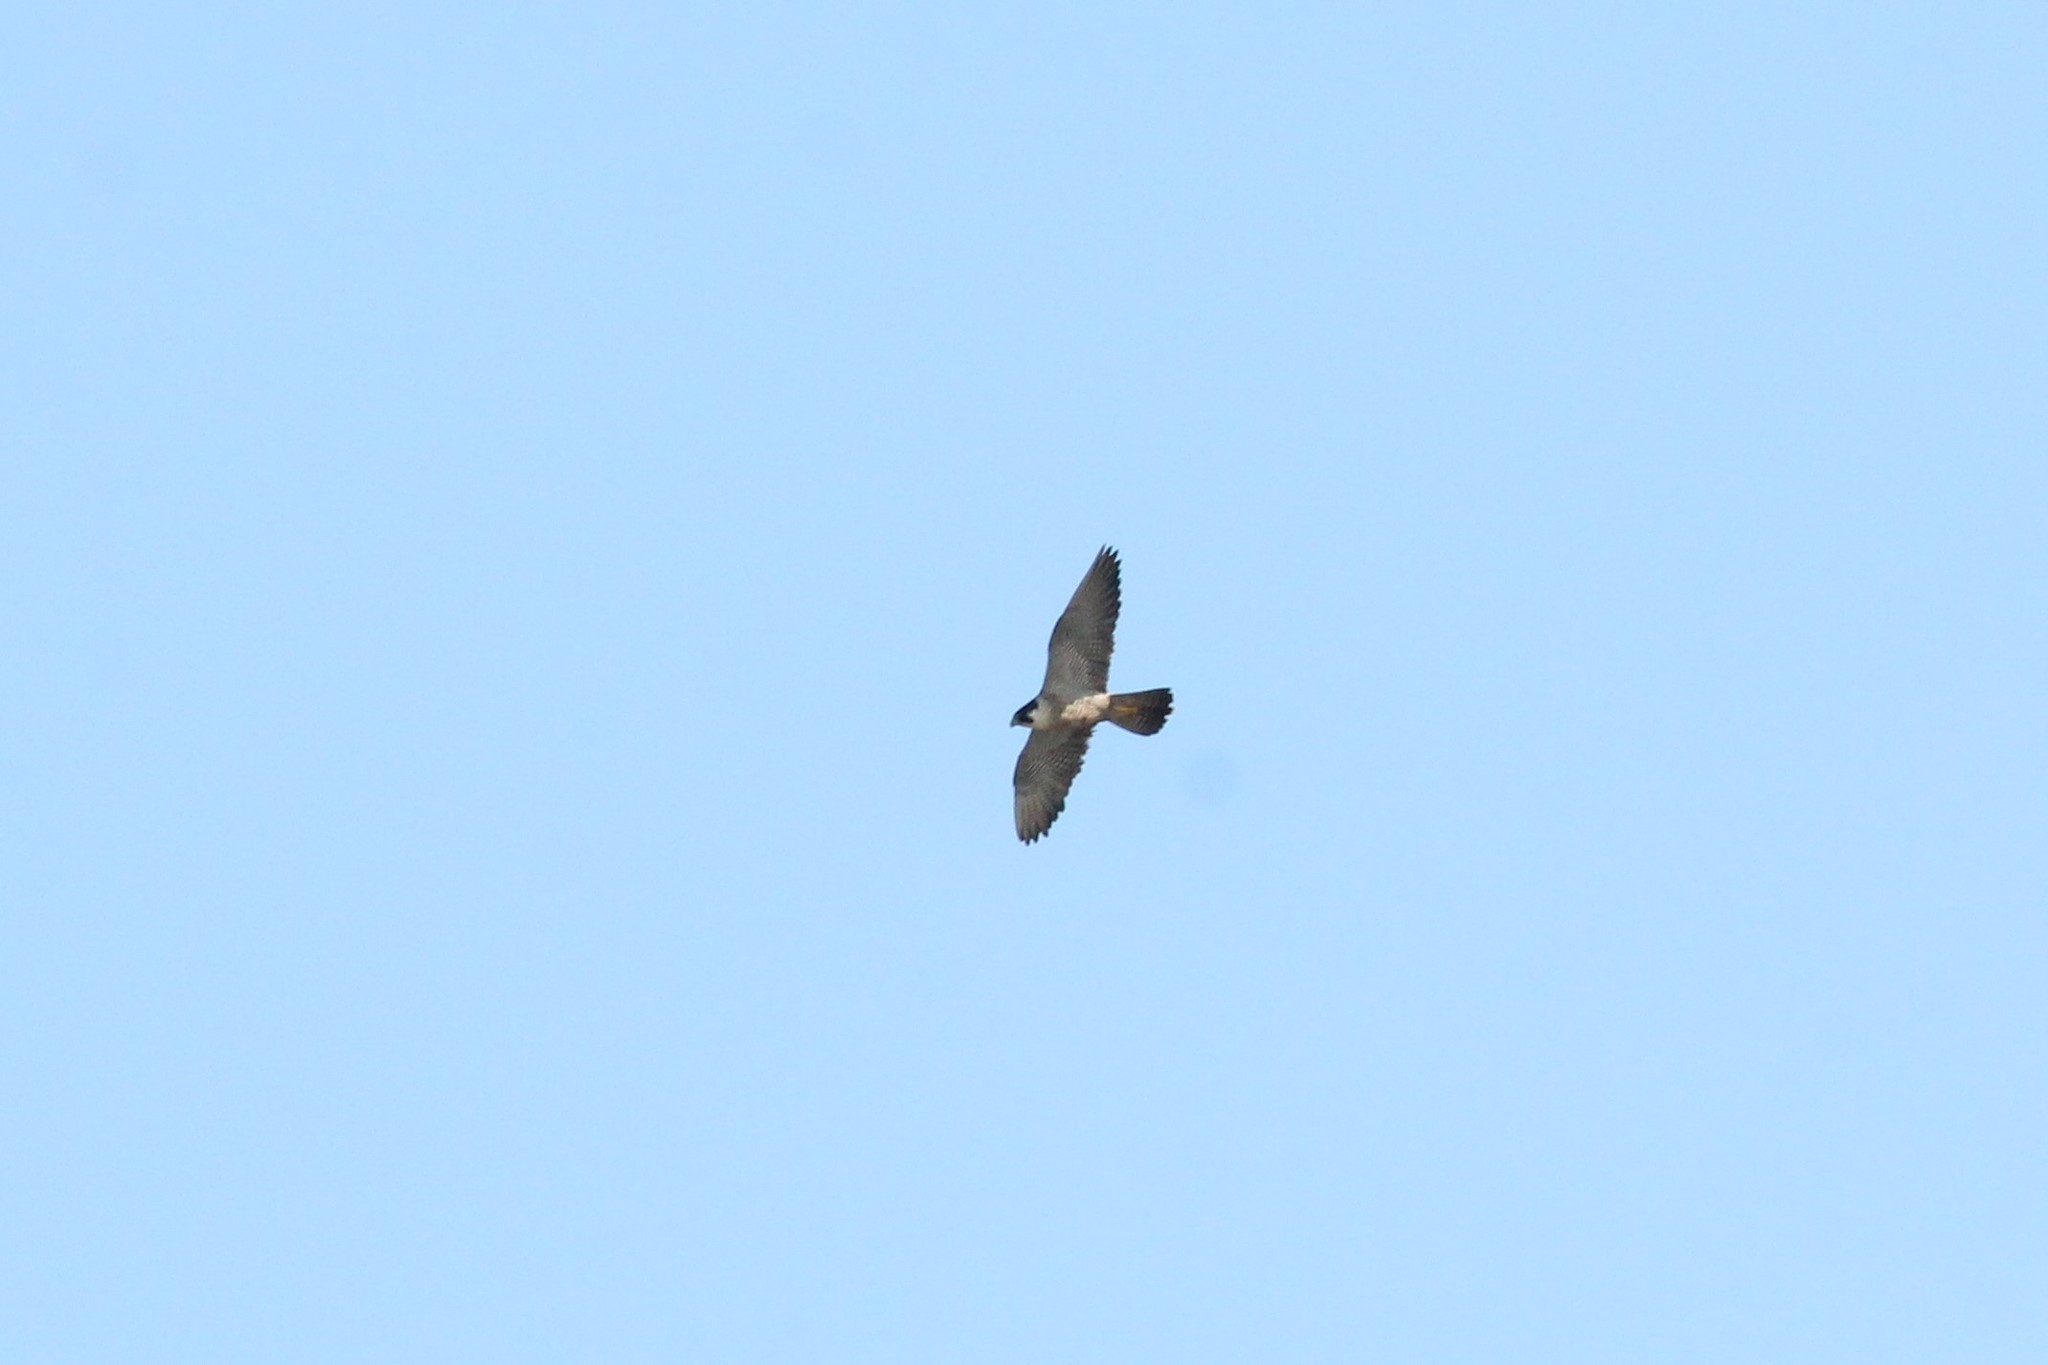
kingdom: Animalia
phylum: Chordata
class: Aves
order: Falconiformes
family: Falconidae
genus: Falco
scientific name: Falco peregrinus
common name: Peregrine falcon
